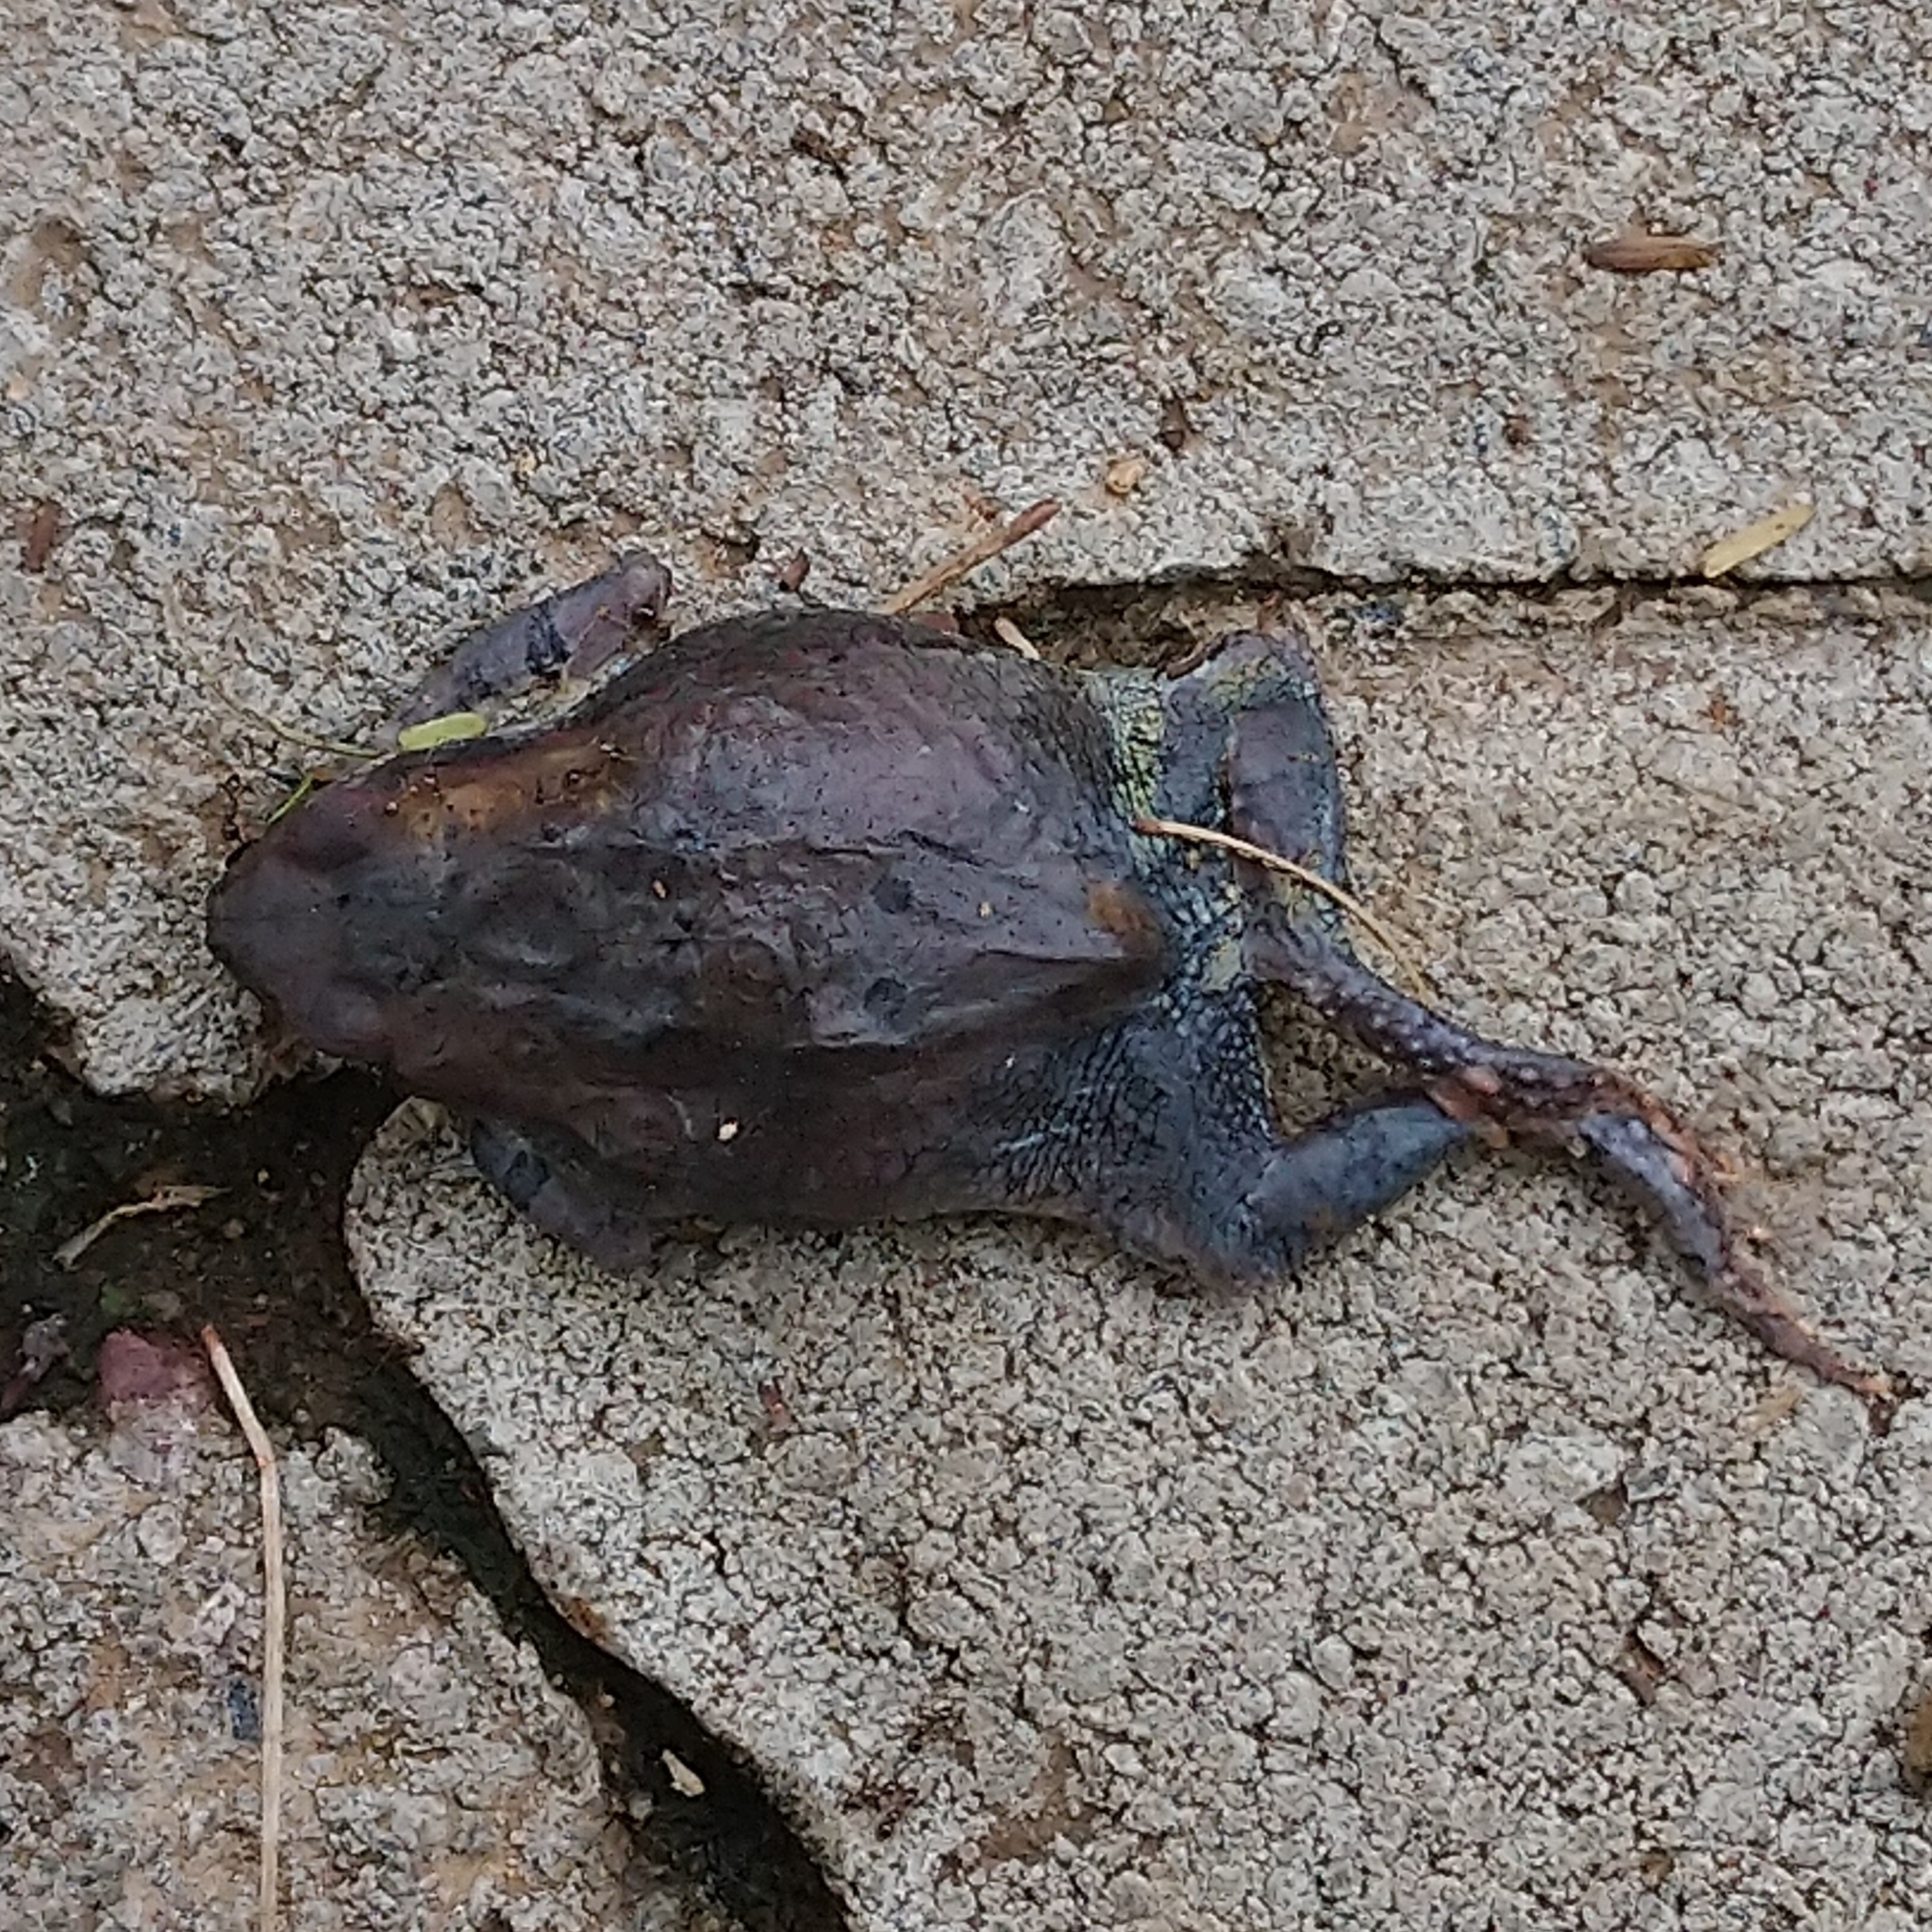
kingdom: Animalia
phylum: Chordata
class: Amphibia
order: Anura
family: Bufonidae
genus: Schismaderma
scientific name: Schismaderma carens
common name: African split-skin toad
